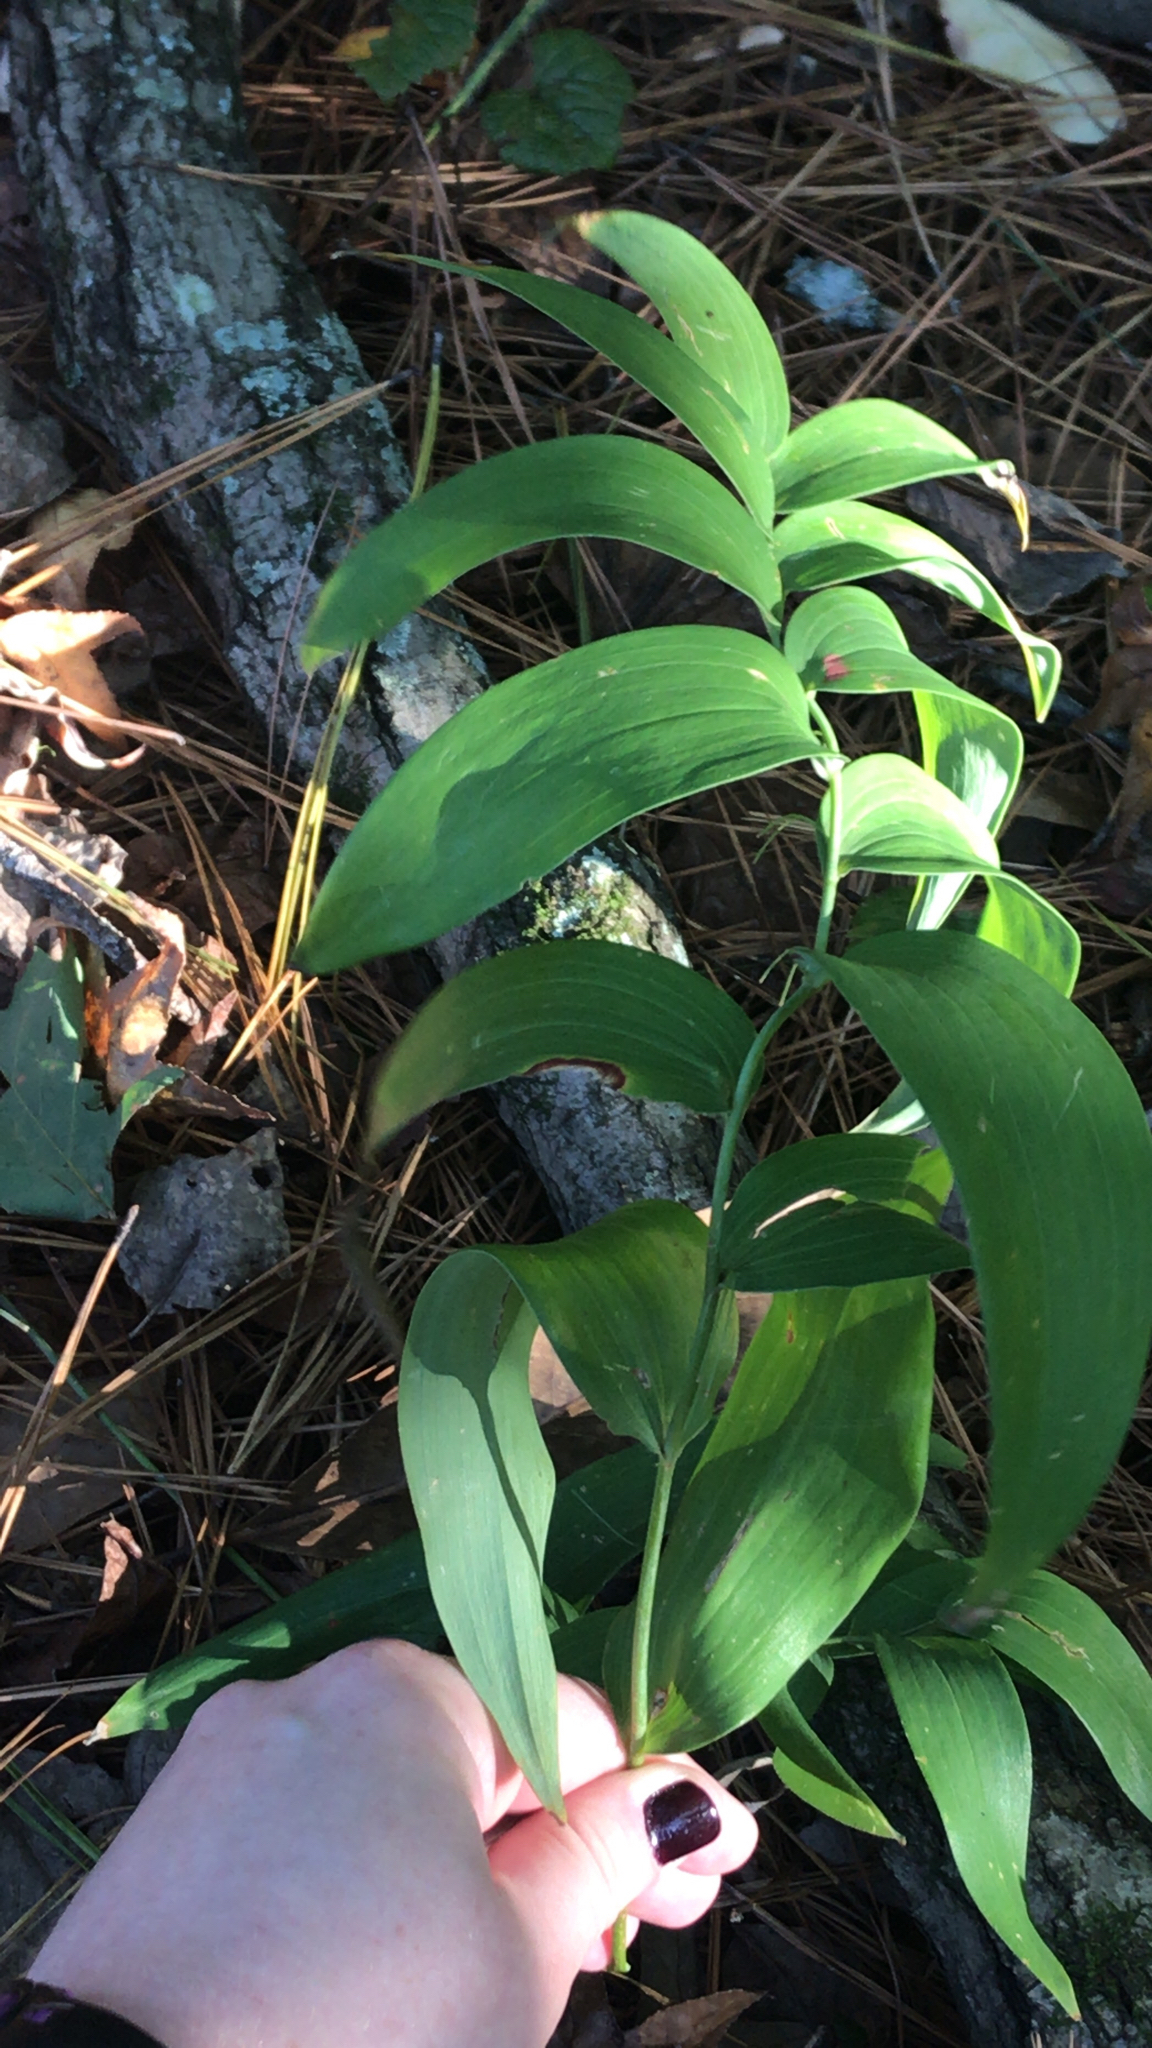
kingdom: Plantae
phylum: Tracheophyta
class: Liliopsida
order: Asparagales
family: Asparagaceae
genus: Polygonatum
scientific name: Polygonatum biflorum
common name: American solomon's-seal
